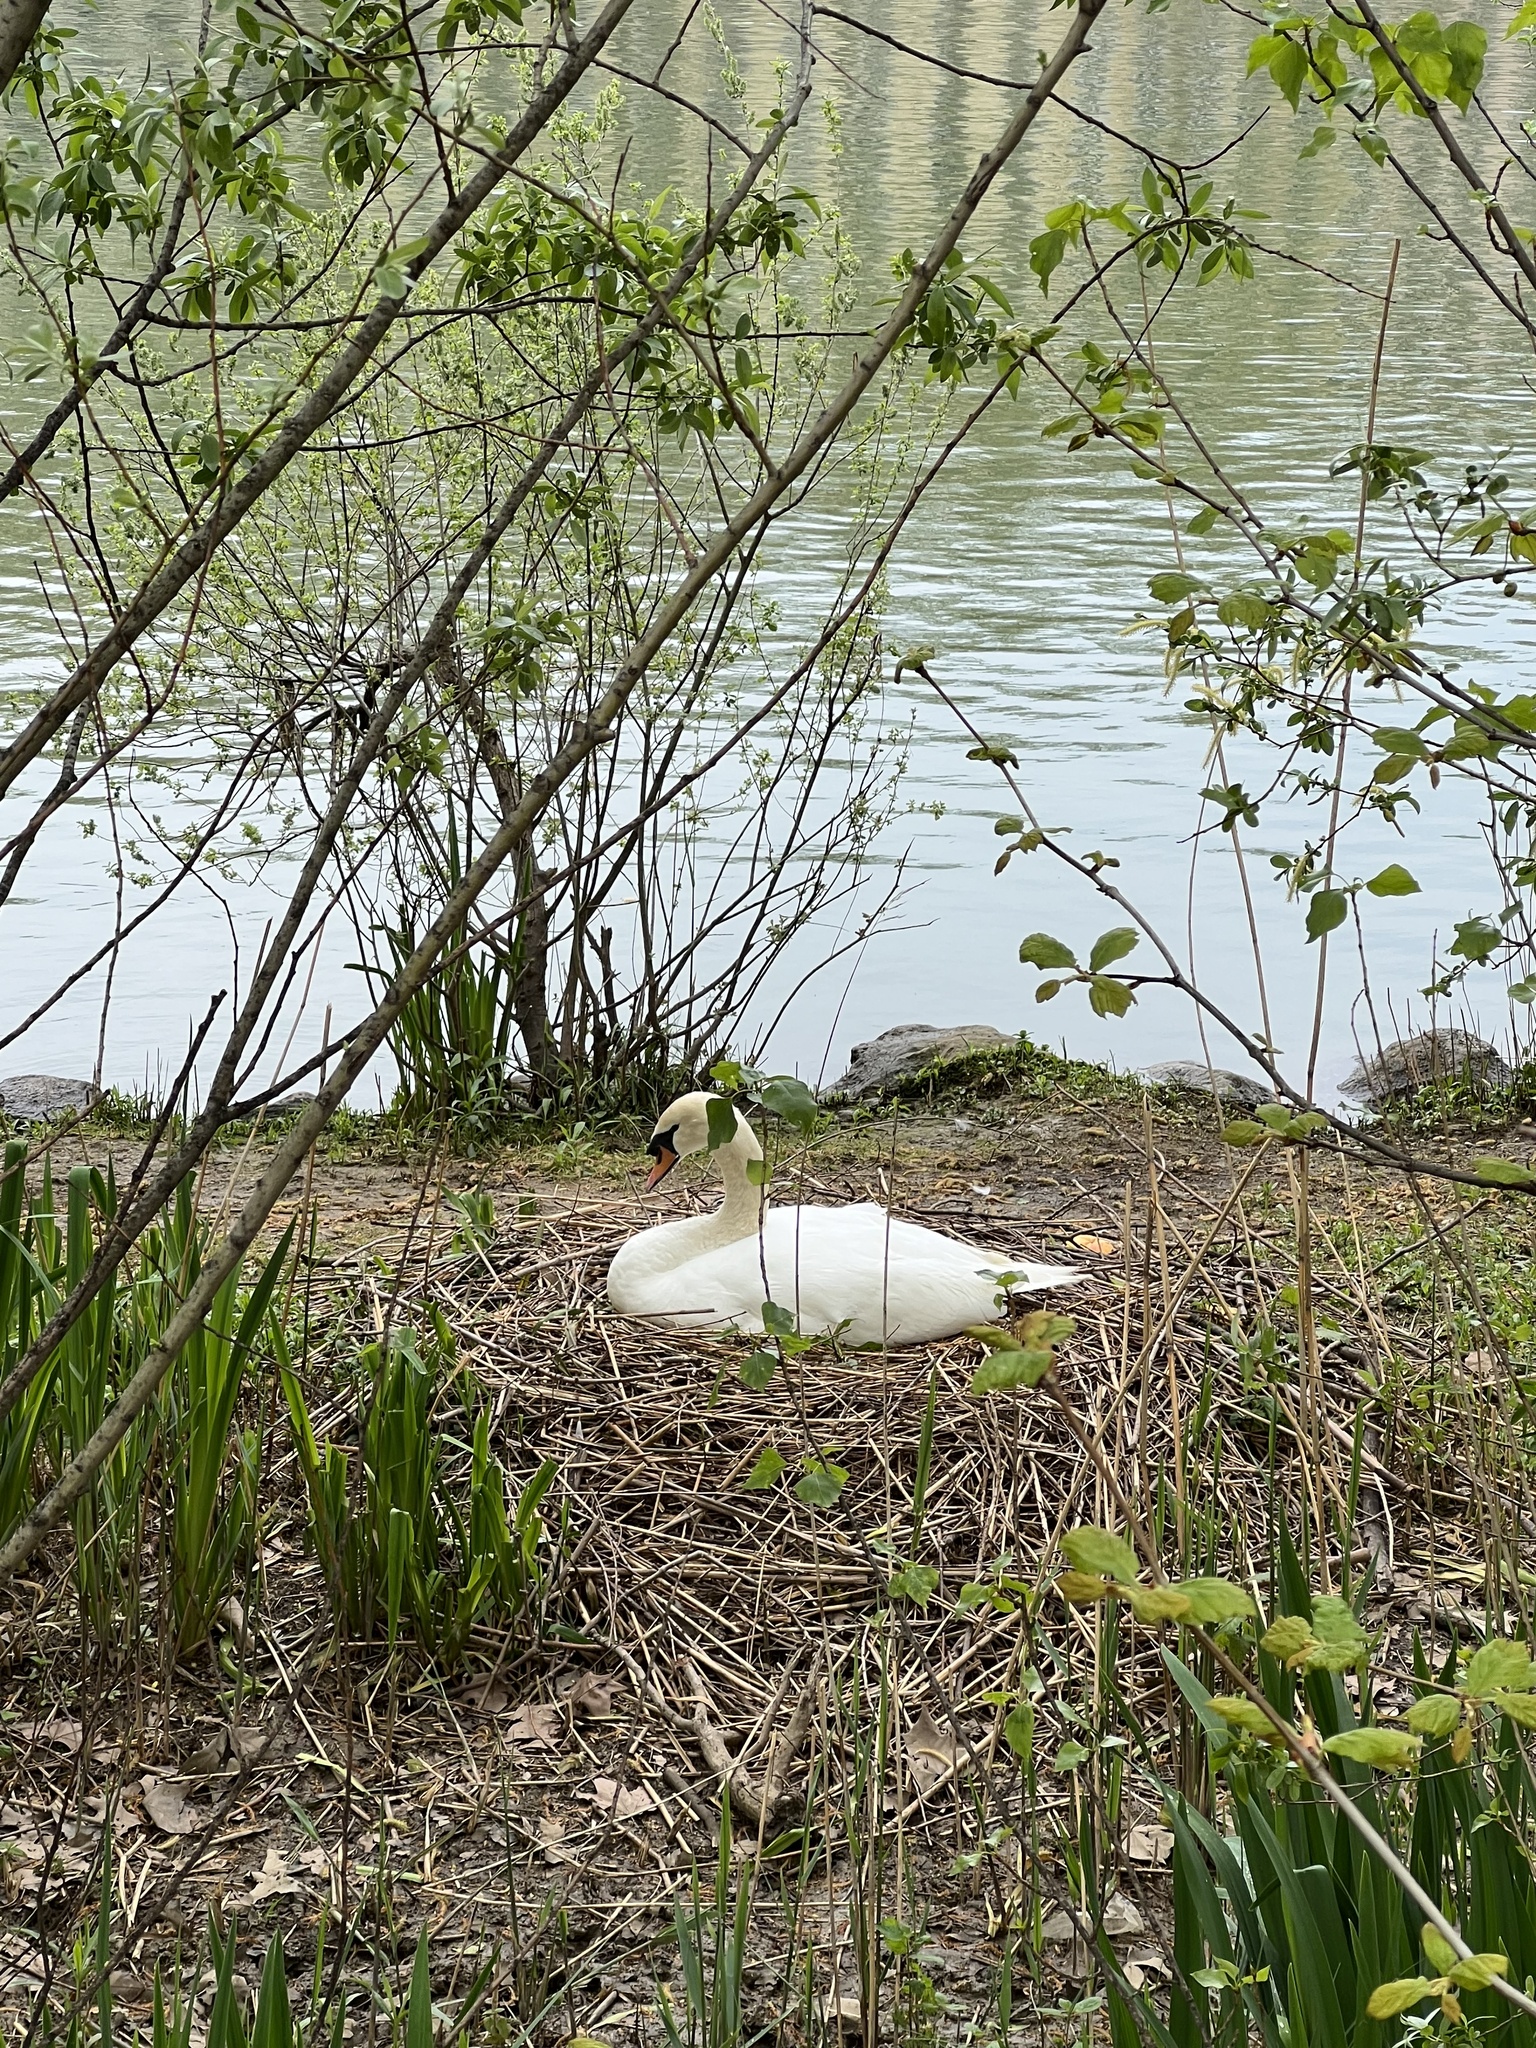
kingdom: Animalia
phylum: Chordata
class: Aves
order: Anseriformes
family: Anatidae
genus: Cygnus
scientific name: Cygnus olor
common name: Mute swan
